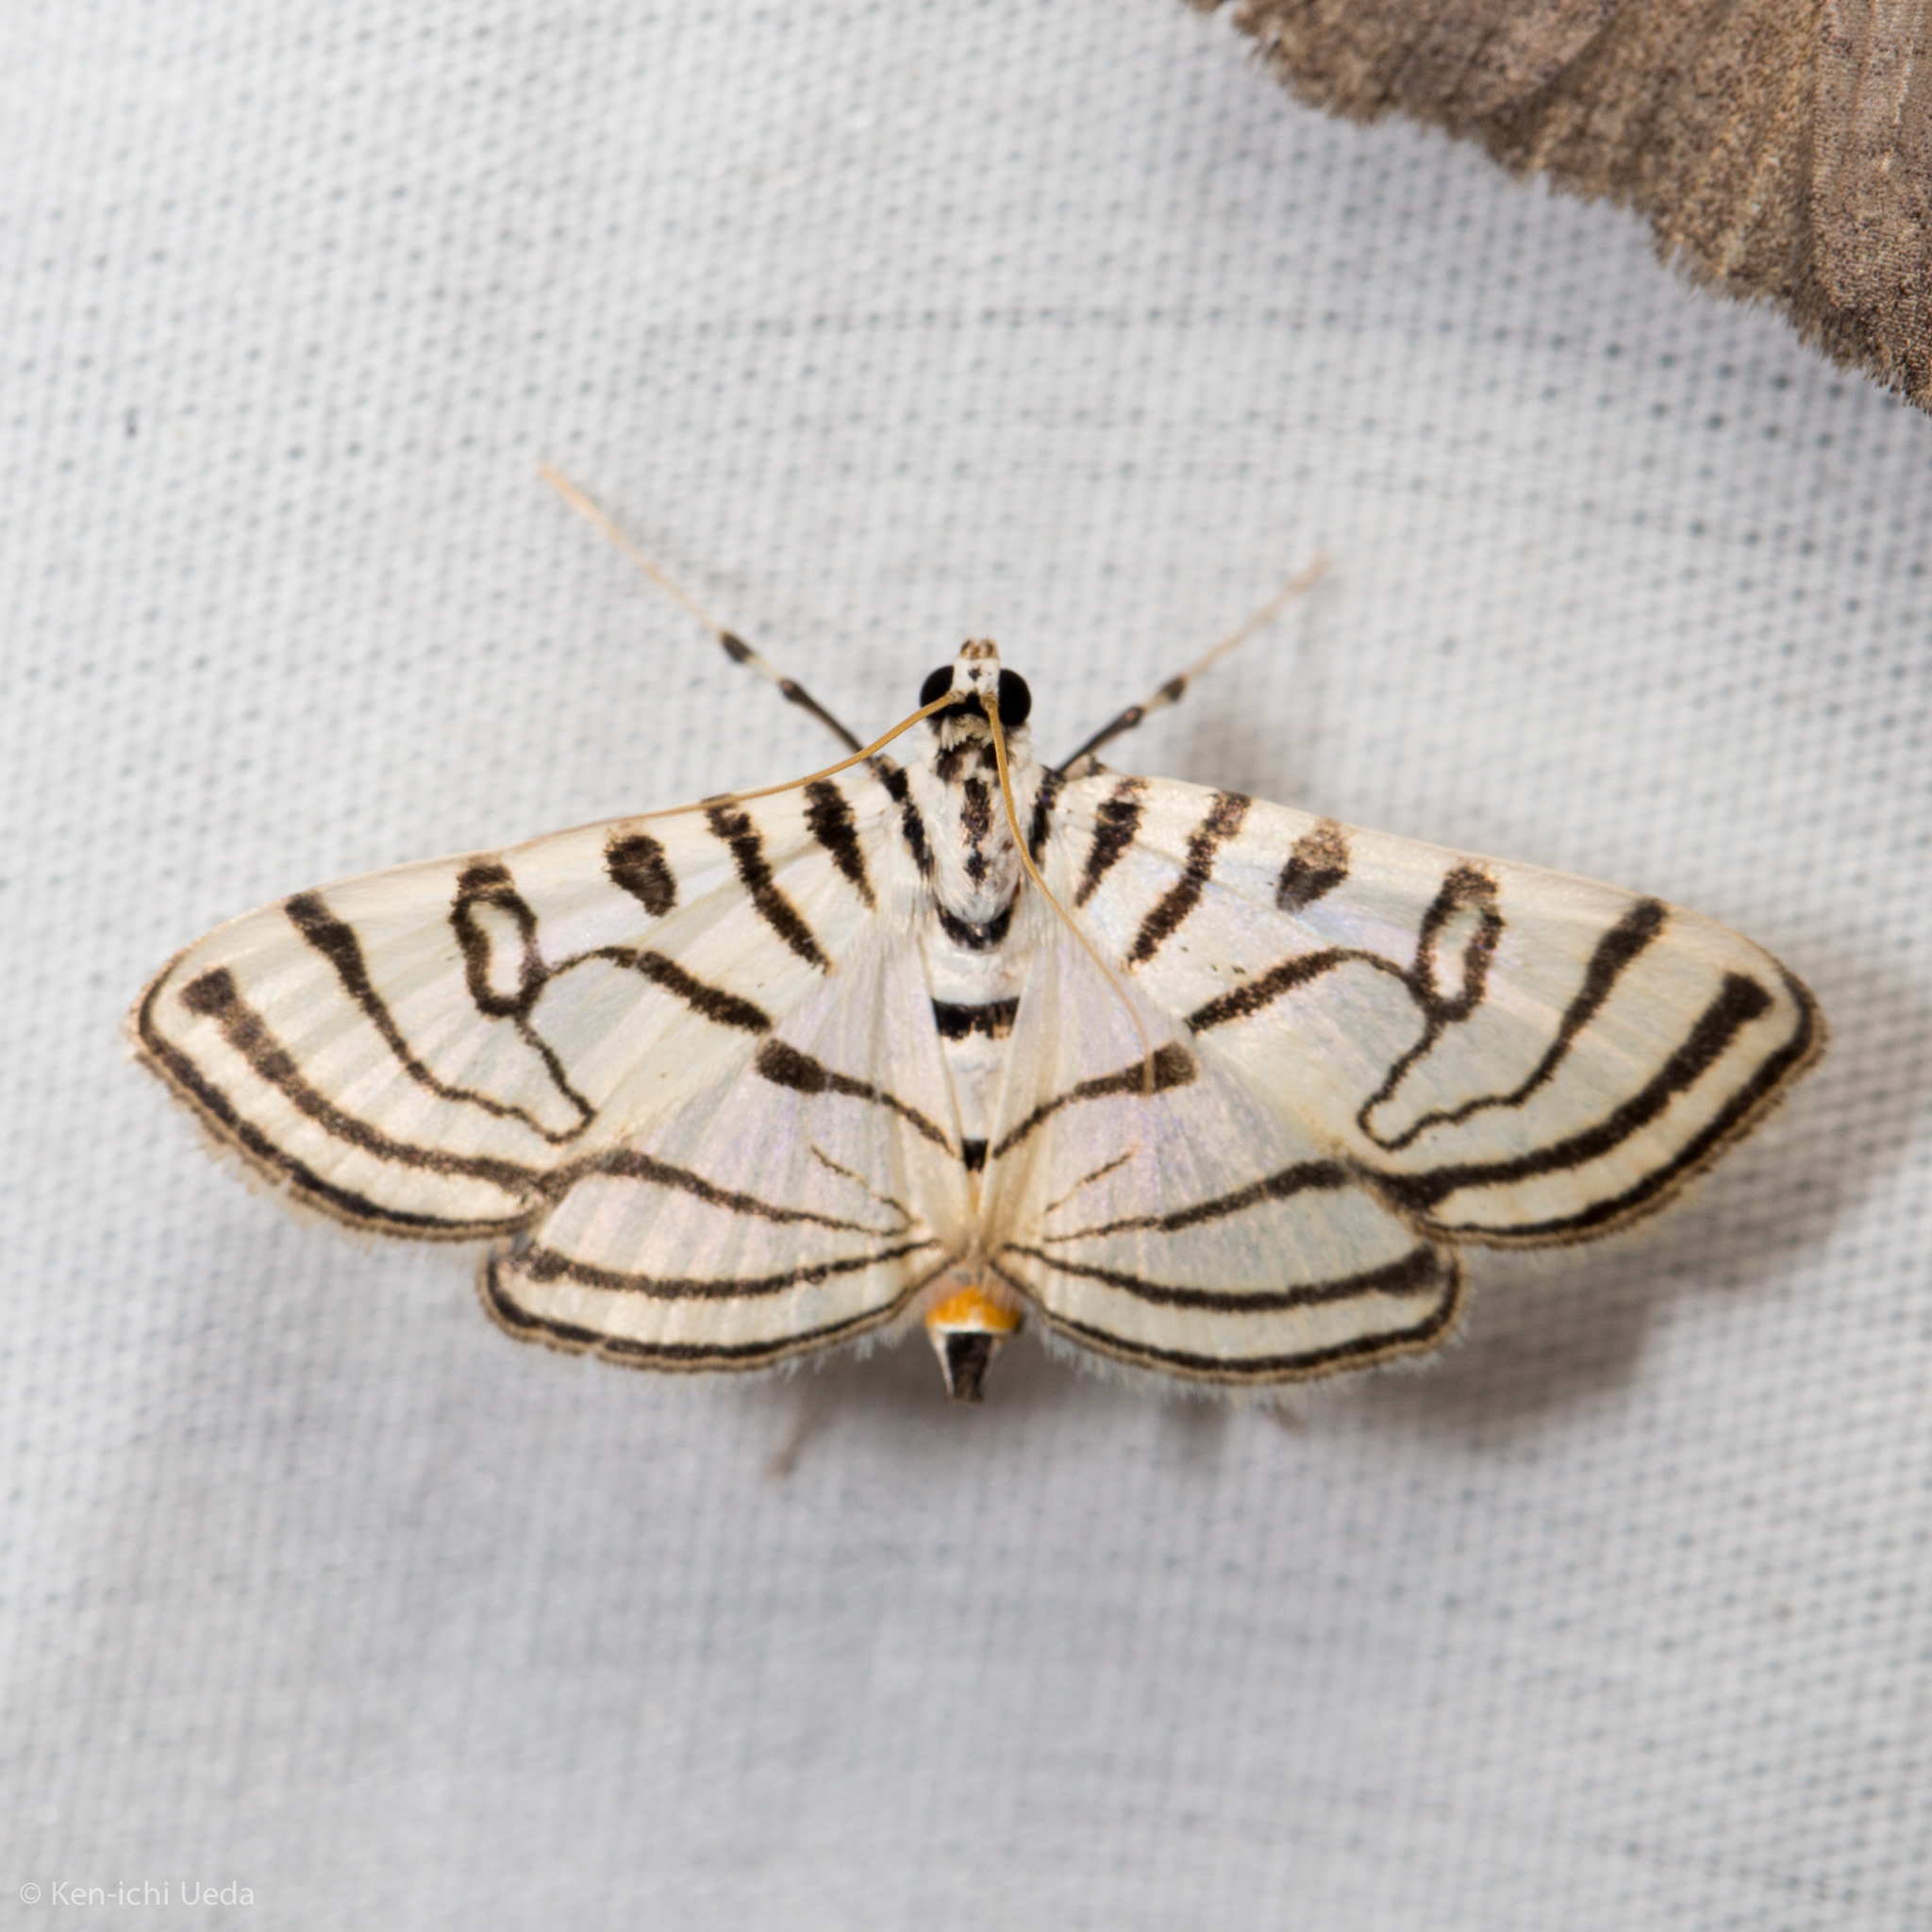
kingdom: Animalia
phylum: Arthropoda
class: Insecta
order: Lepidoptera
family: Crambidae
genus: Conchylodes
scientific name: Conchylodes ovulalis
